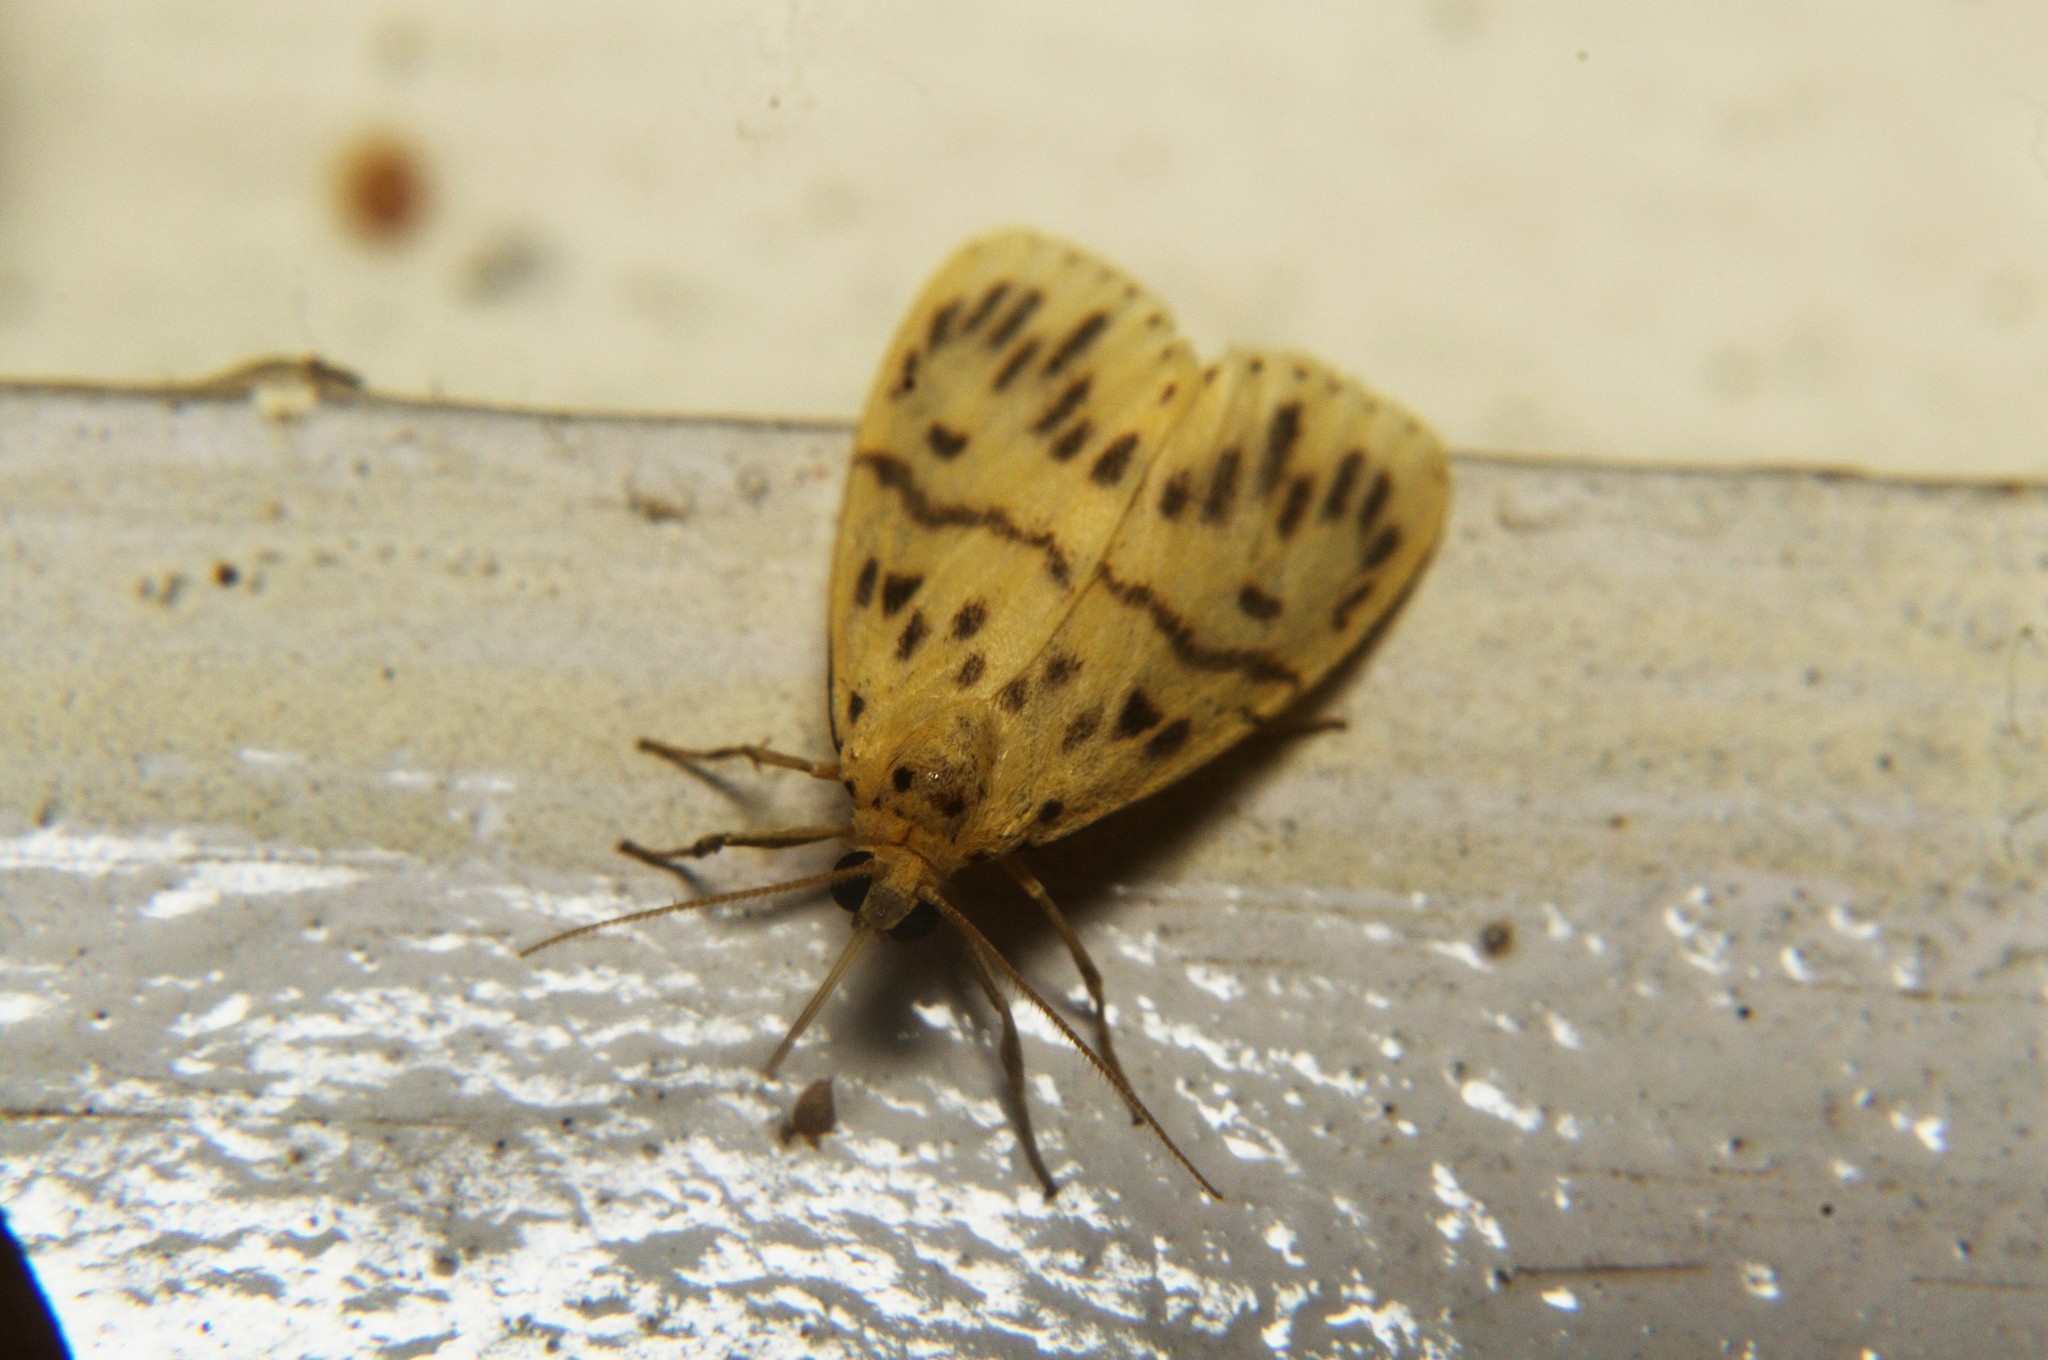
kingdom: Animalia
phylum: Arthropoda
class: Insecta
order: Lepidoptera
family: Erebidae
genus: Miltochrista
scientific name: Miltochrista strigipennis
